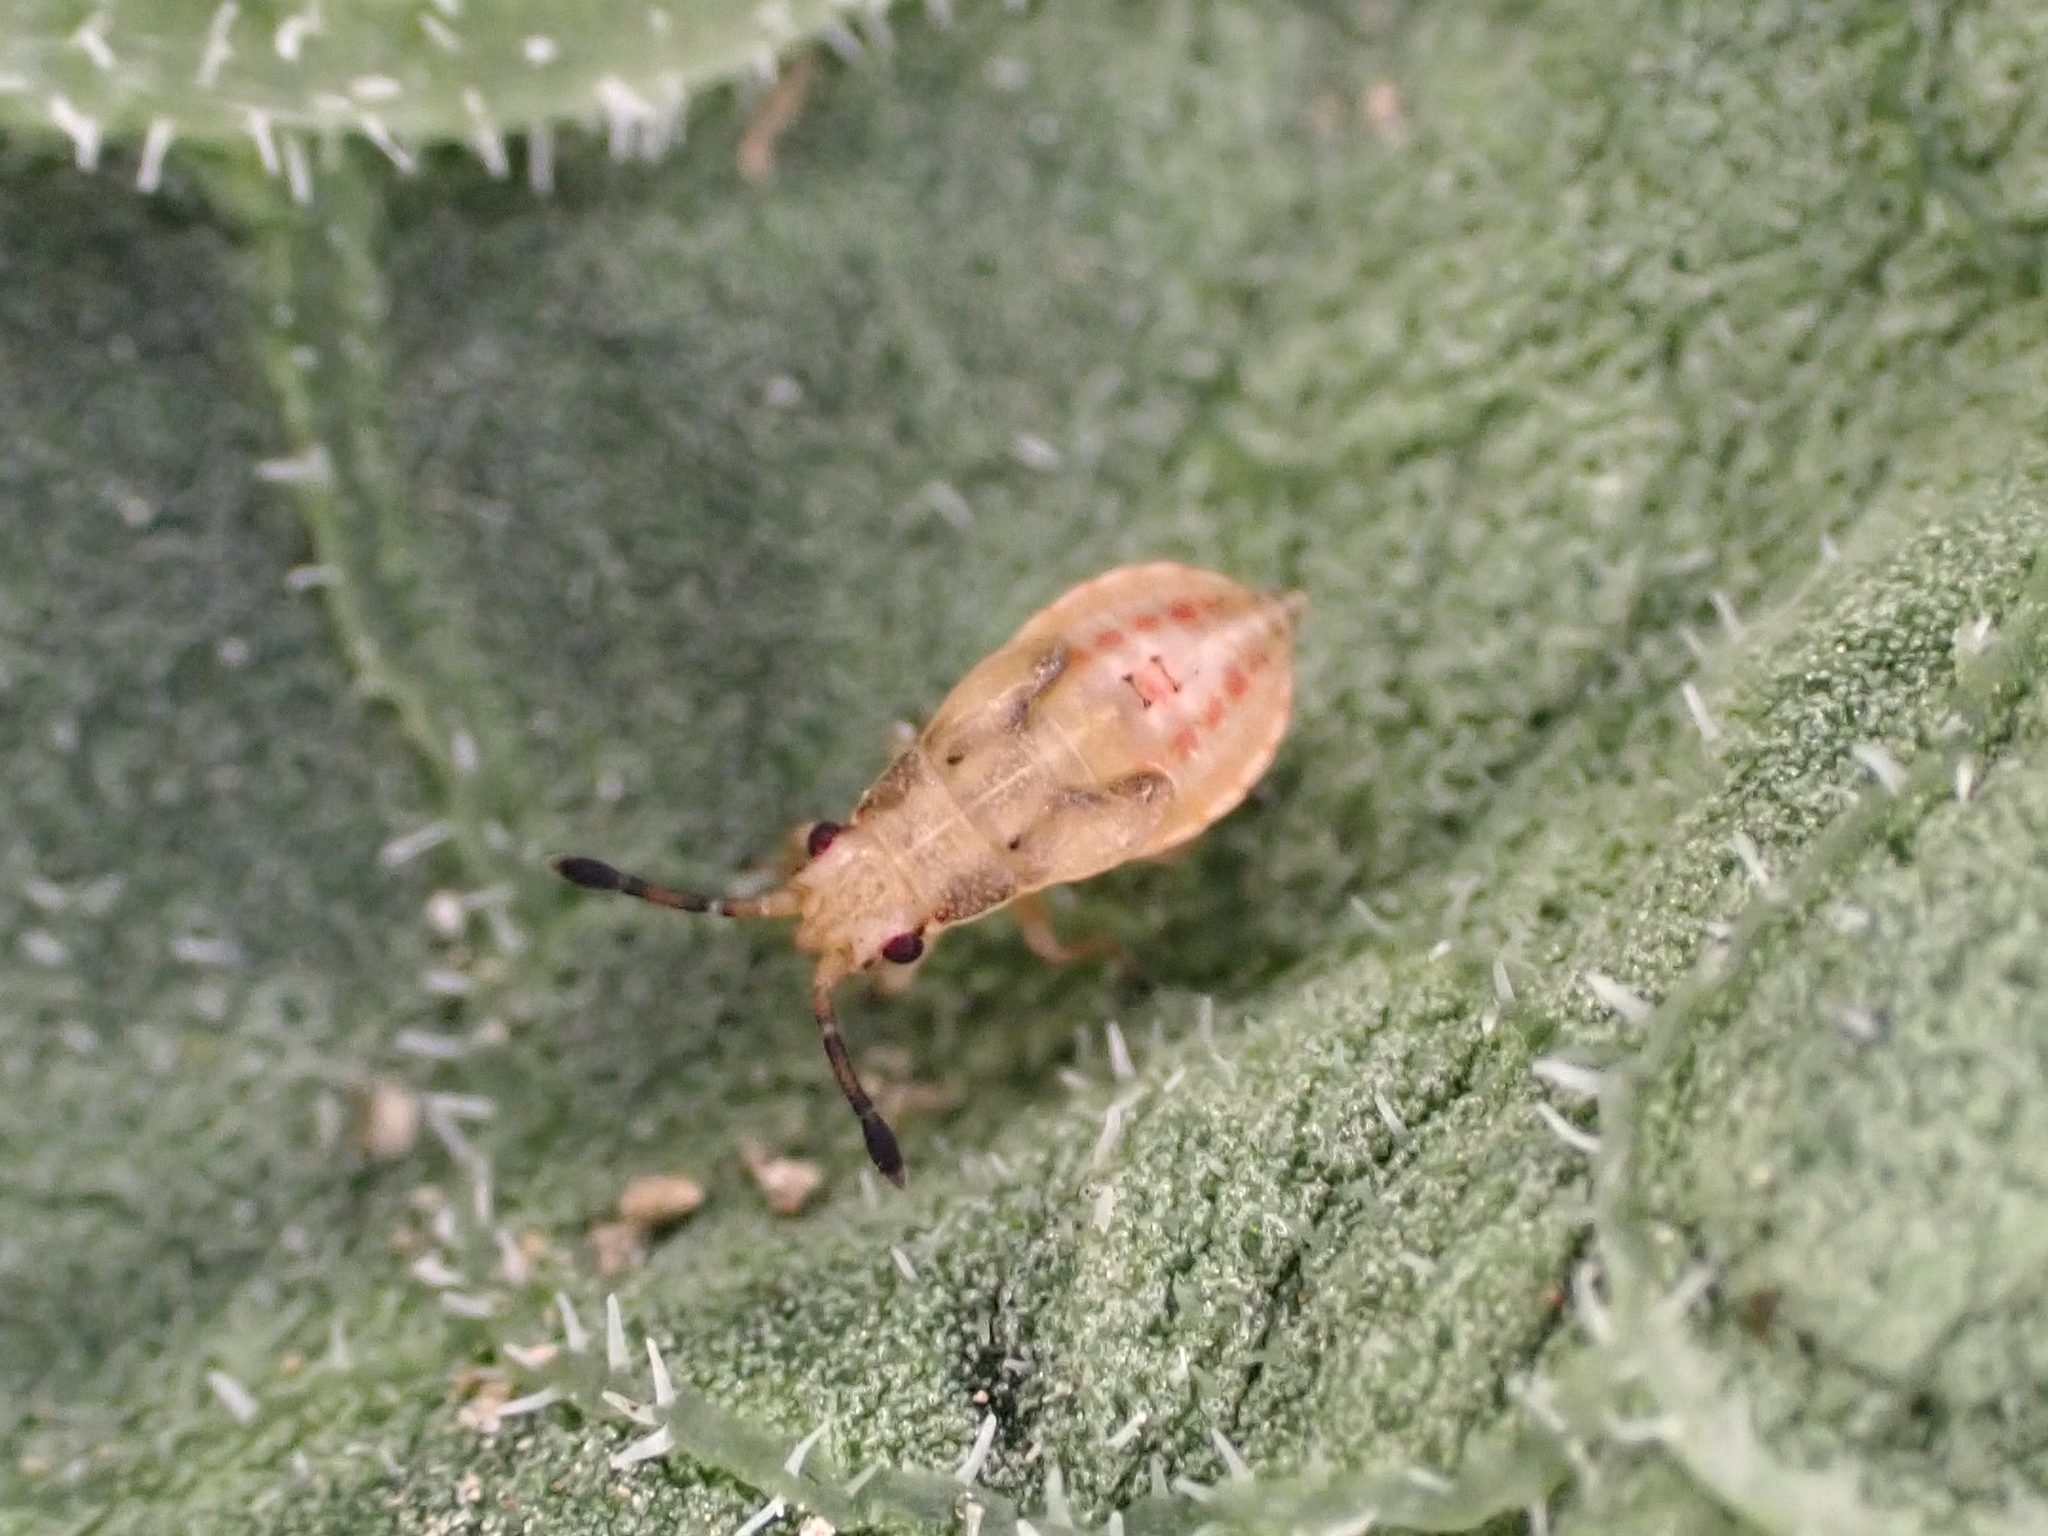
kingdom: Animalia
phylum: Arthropoda
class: Insecta
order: Hemiptera
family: Cymidae
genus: Cymus
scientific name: Cymus novaezelandiae
